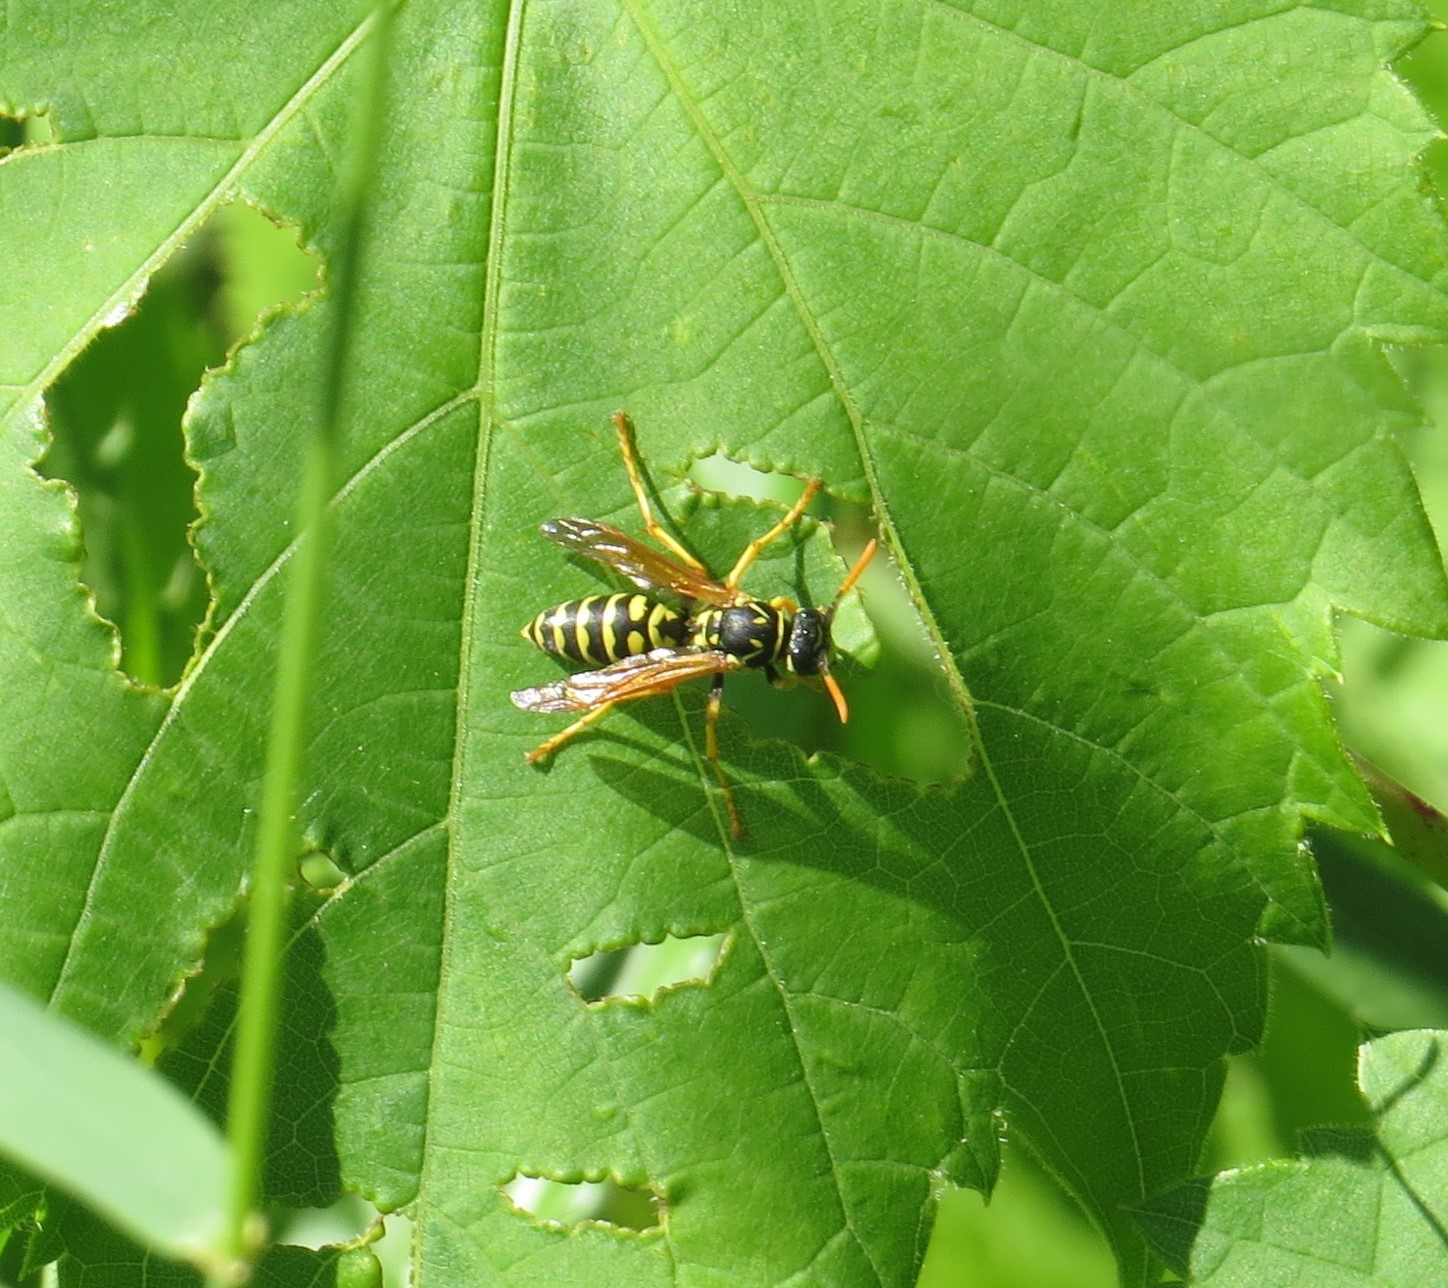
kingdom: Animalia
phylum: Arthropoda
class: Insecta
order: Hymenoptera
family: Eumenidae
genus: Polistes
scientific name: Polistes dominula
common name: Paper wasp
